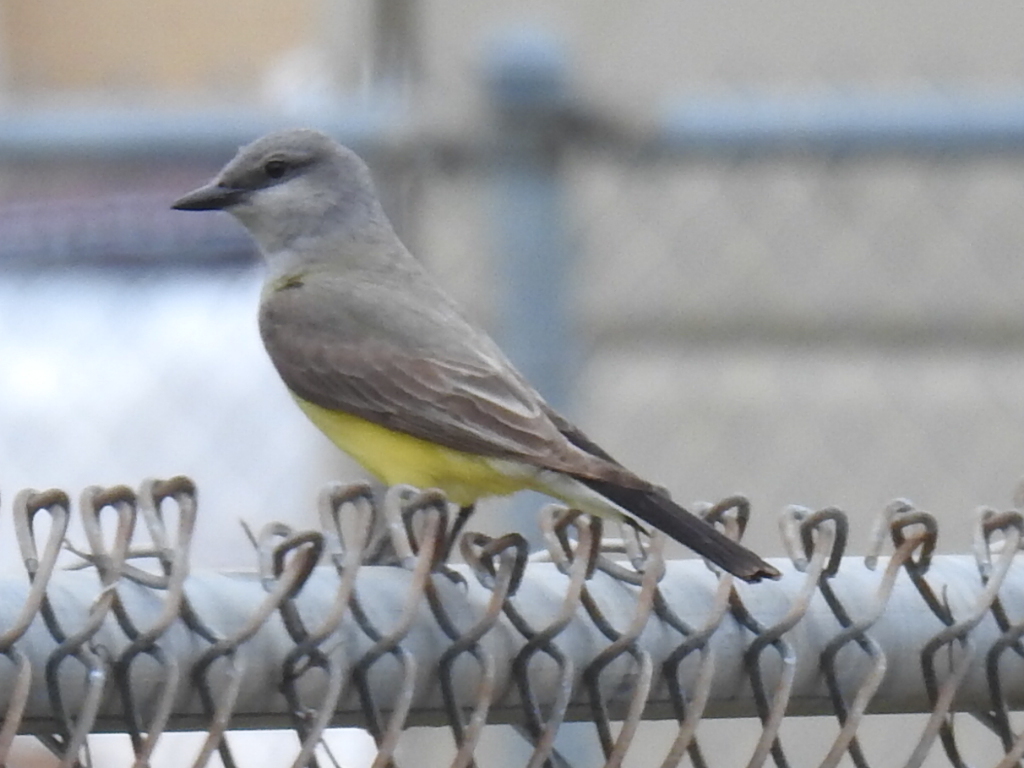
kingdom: Animalia
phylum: Chordata
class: Aves
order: Passeriformes
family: Tyrannidae
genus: Tyrannus
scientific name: Tyrannus verticalis
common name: Western kingbird
